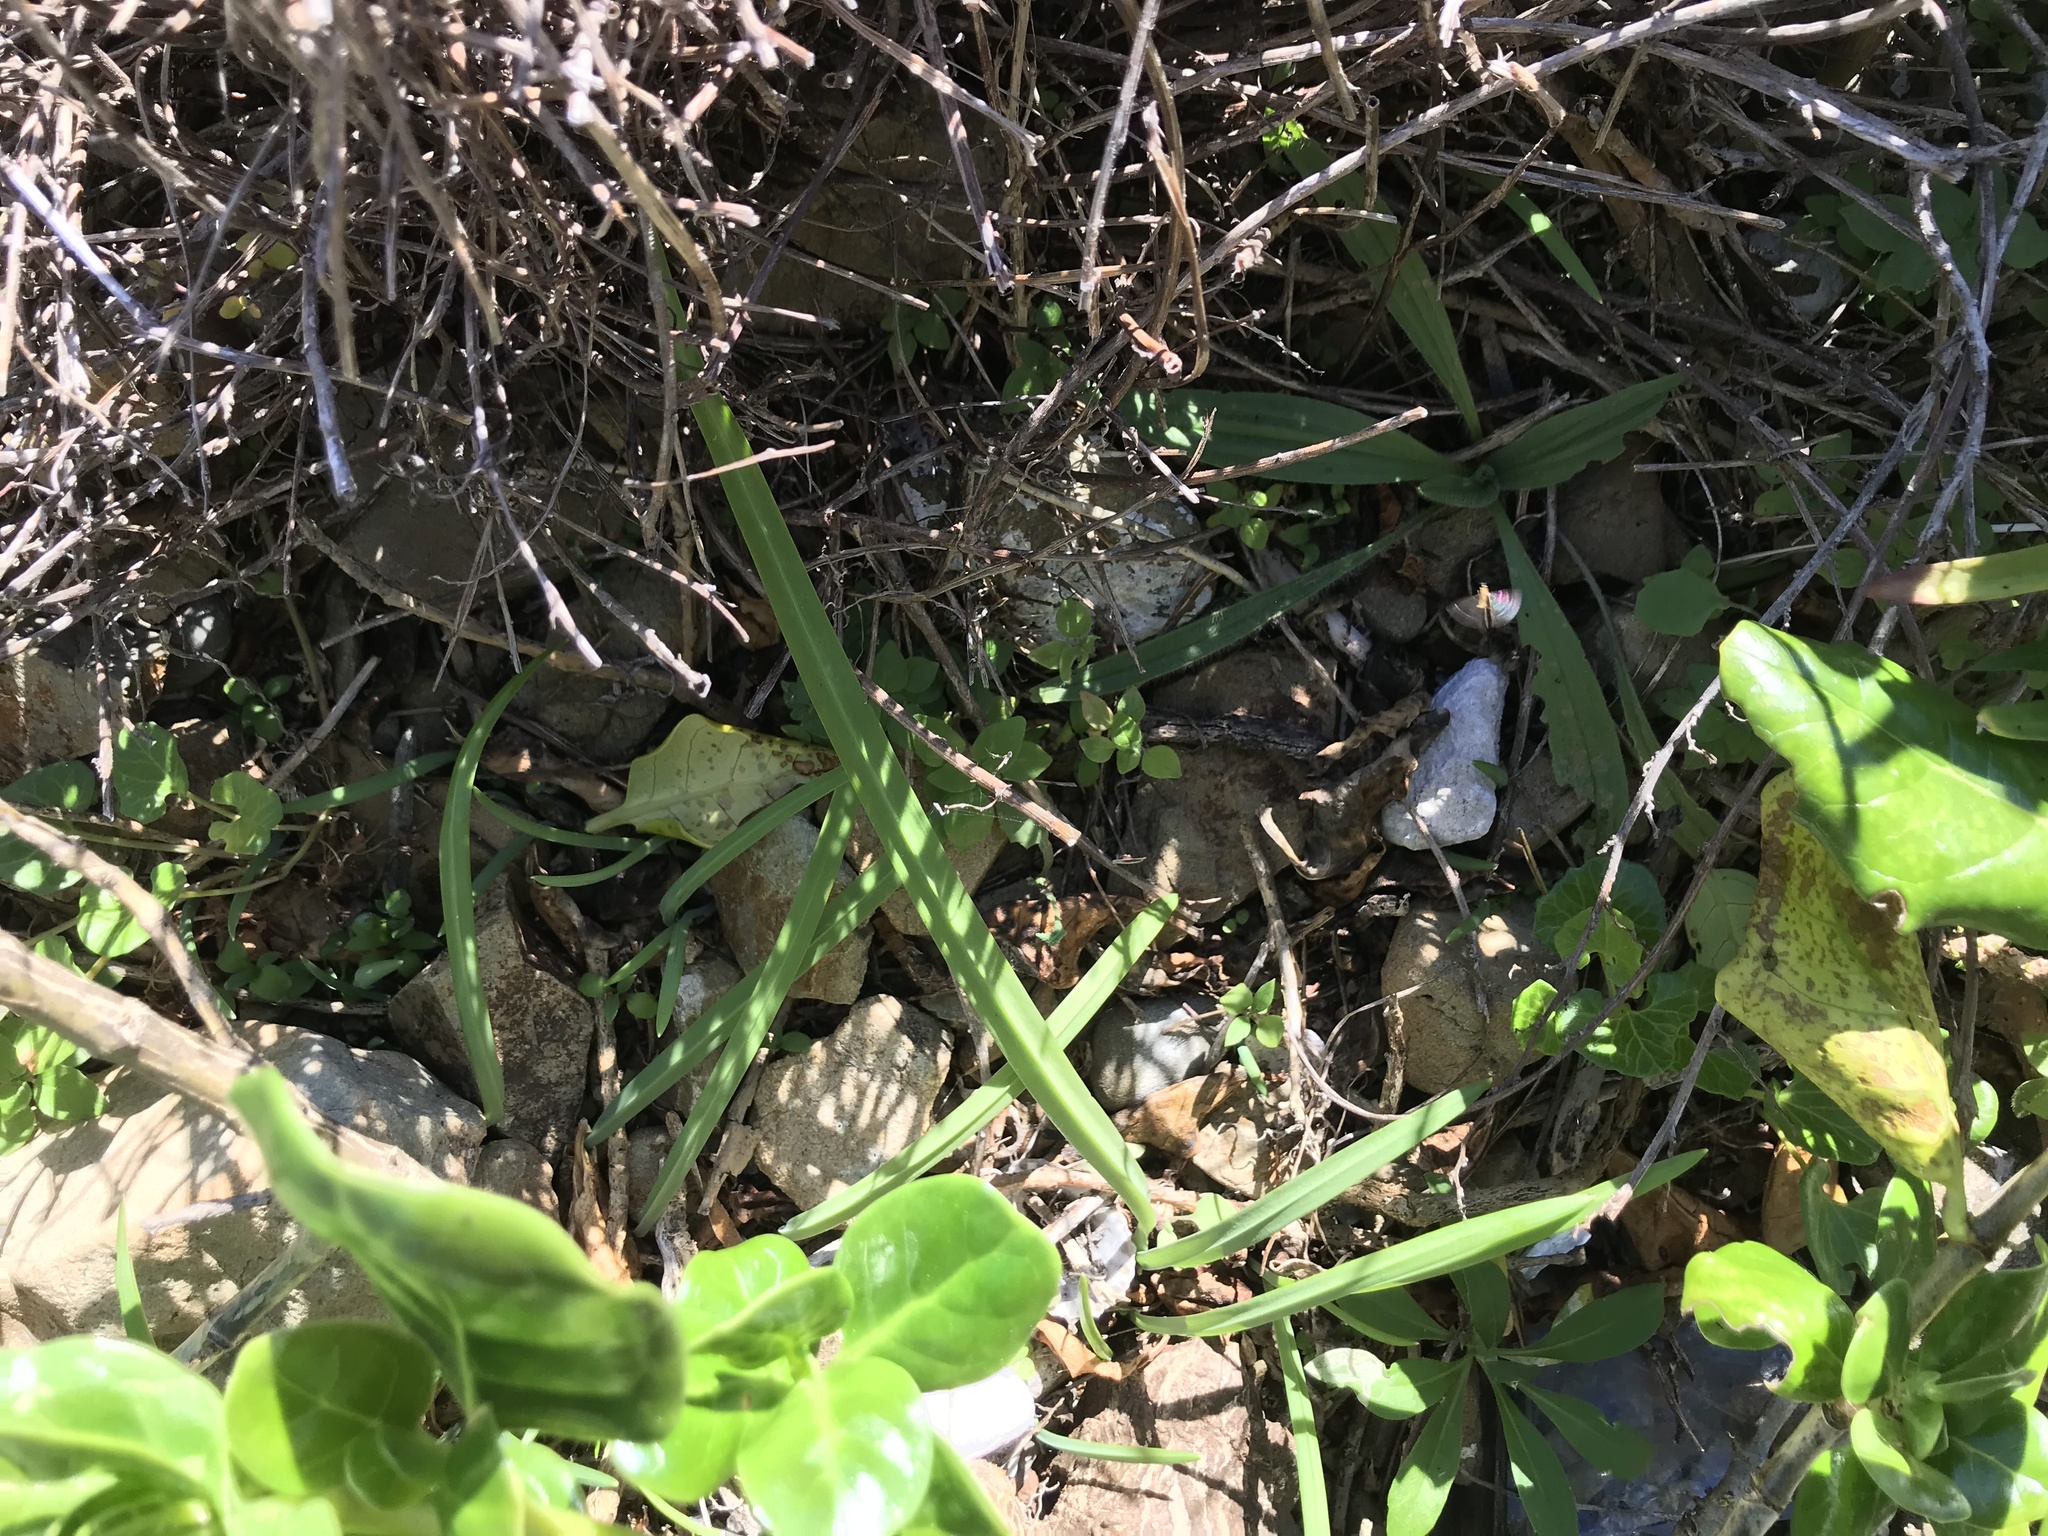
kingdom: Plantae
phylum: Tracheophyta
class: Liliopsida
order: Asparagales
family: Amaryllidaceae
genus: Allium
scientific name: Allium triquetrum
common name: Three-cornered garlic
